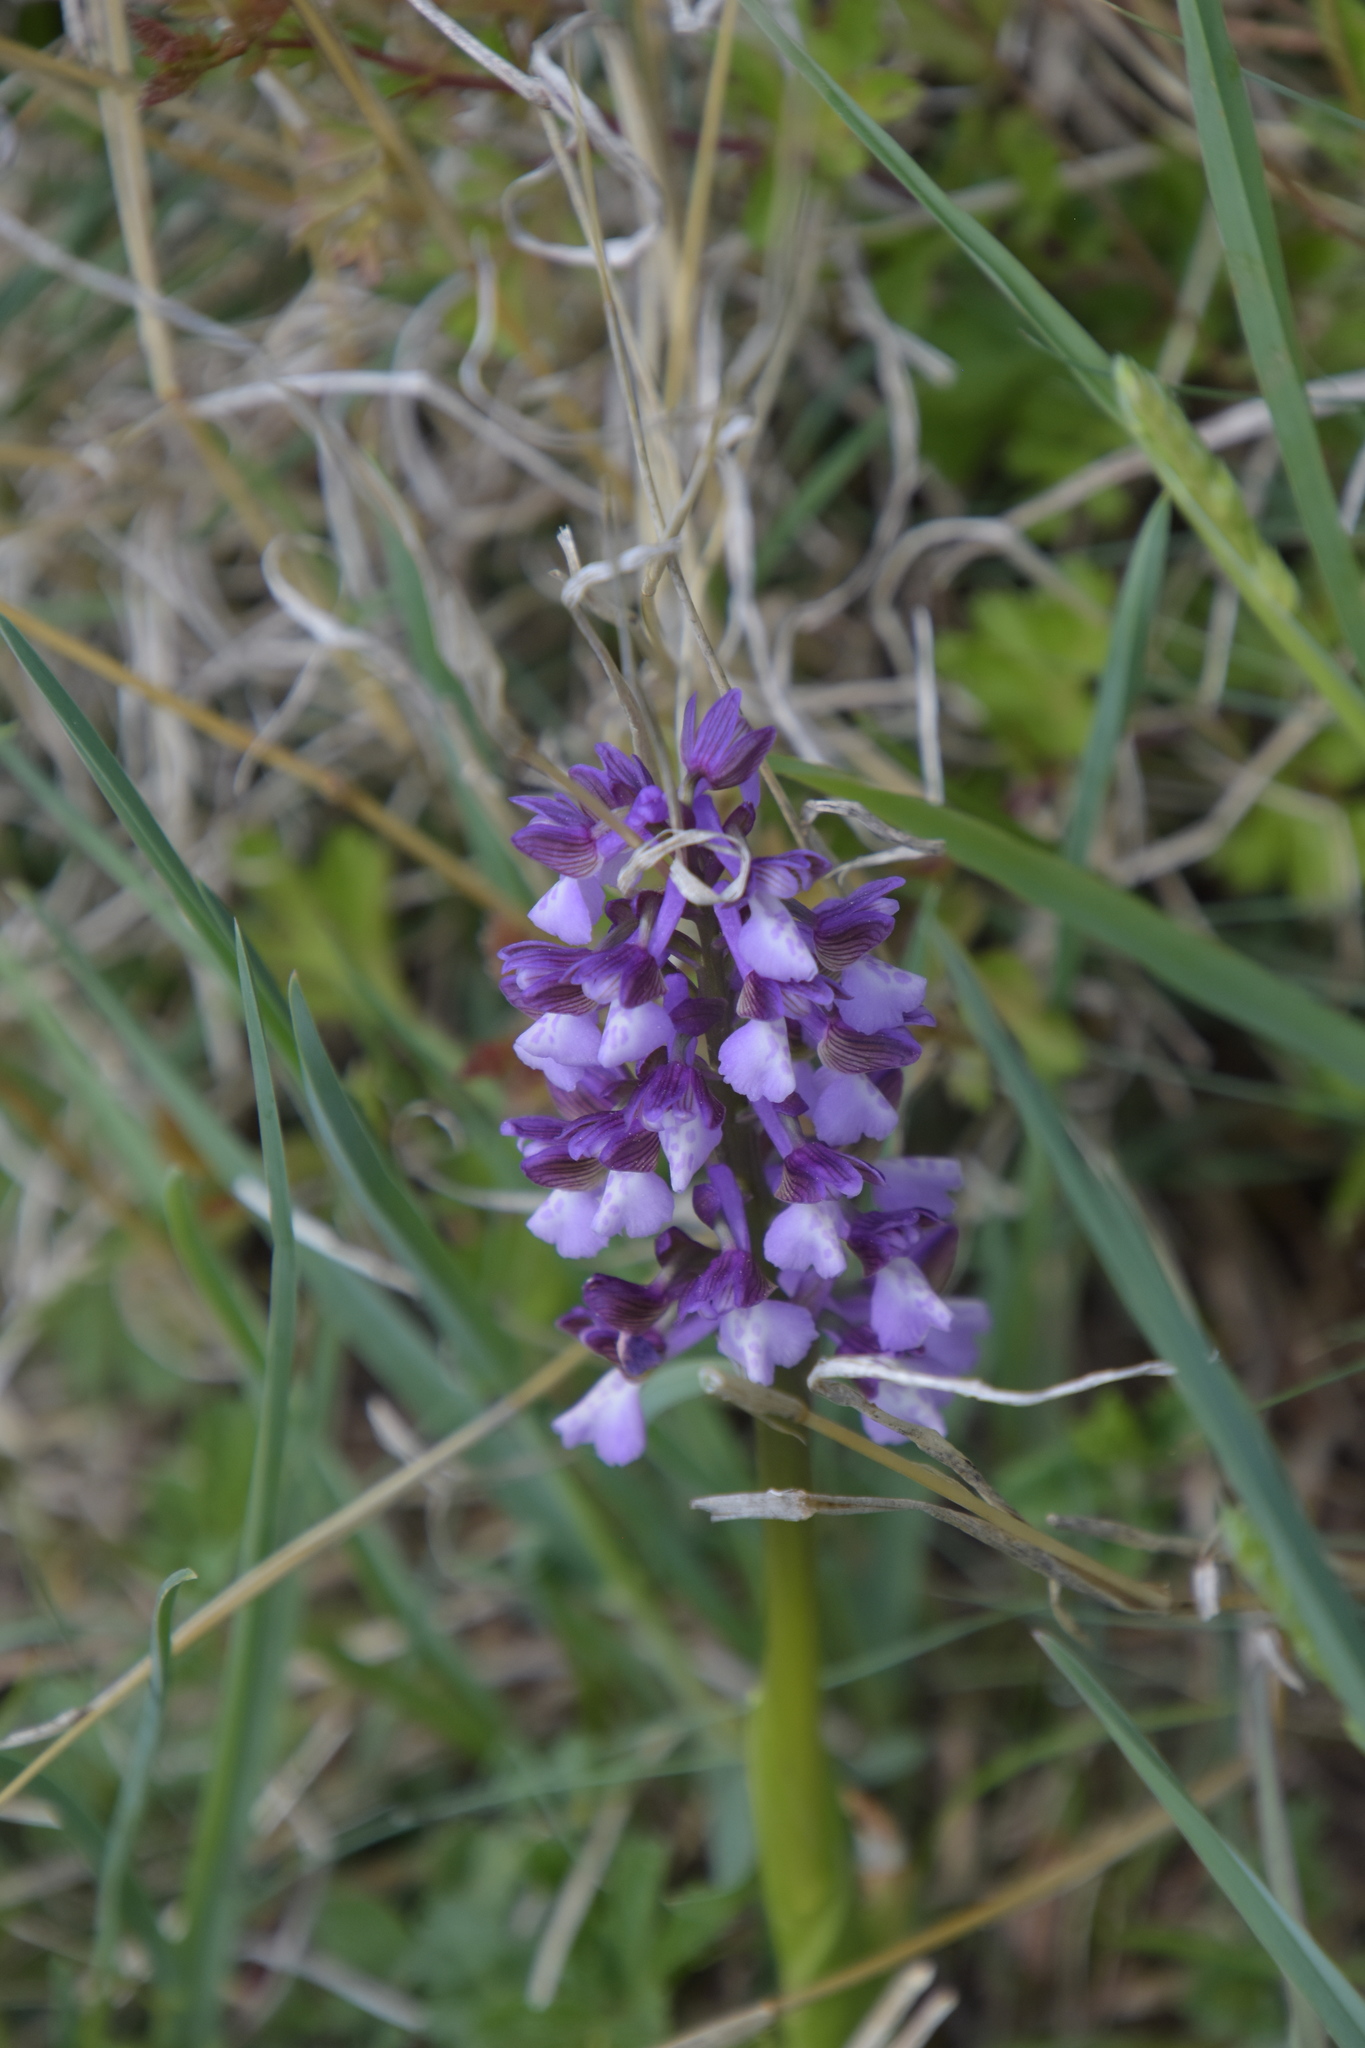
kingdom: Plantae
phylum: Tracheophyta
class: Liliopsida
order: Asparagales
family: Orchidaceae
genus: Anacamptis
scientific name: Anacamptis morio
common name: Green-winged orchid
